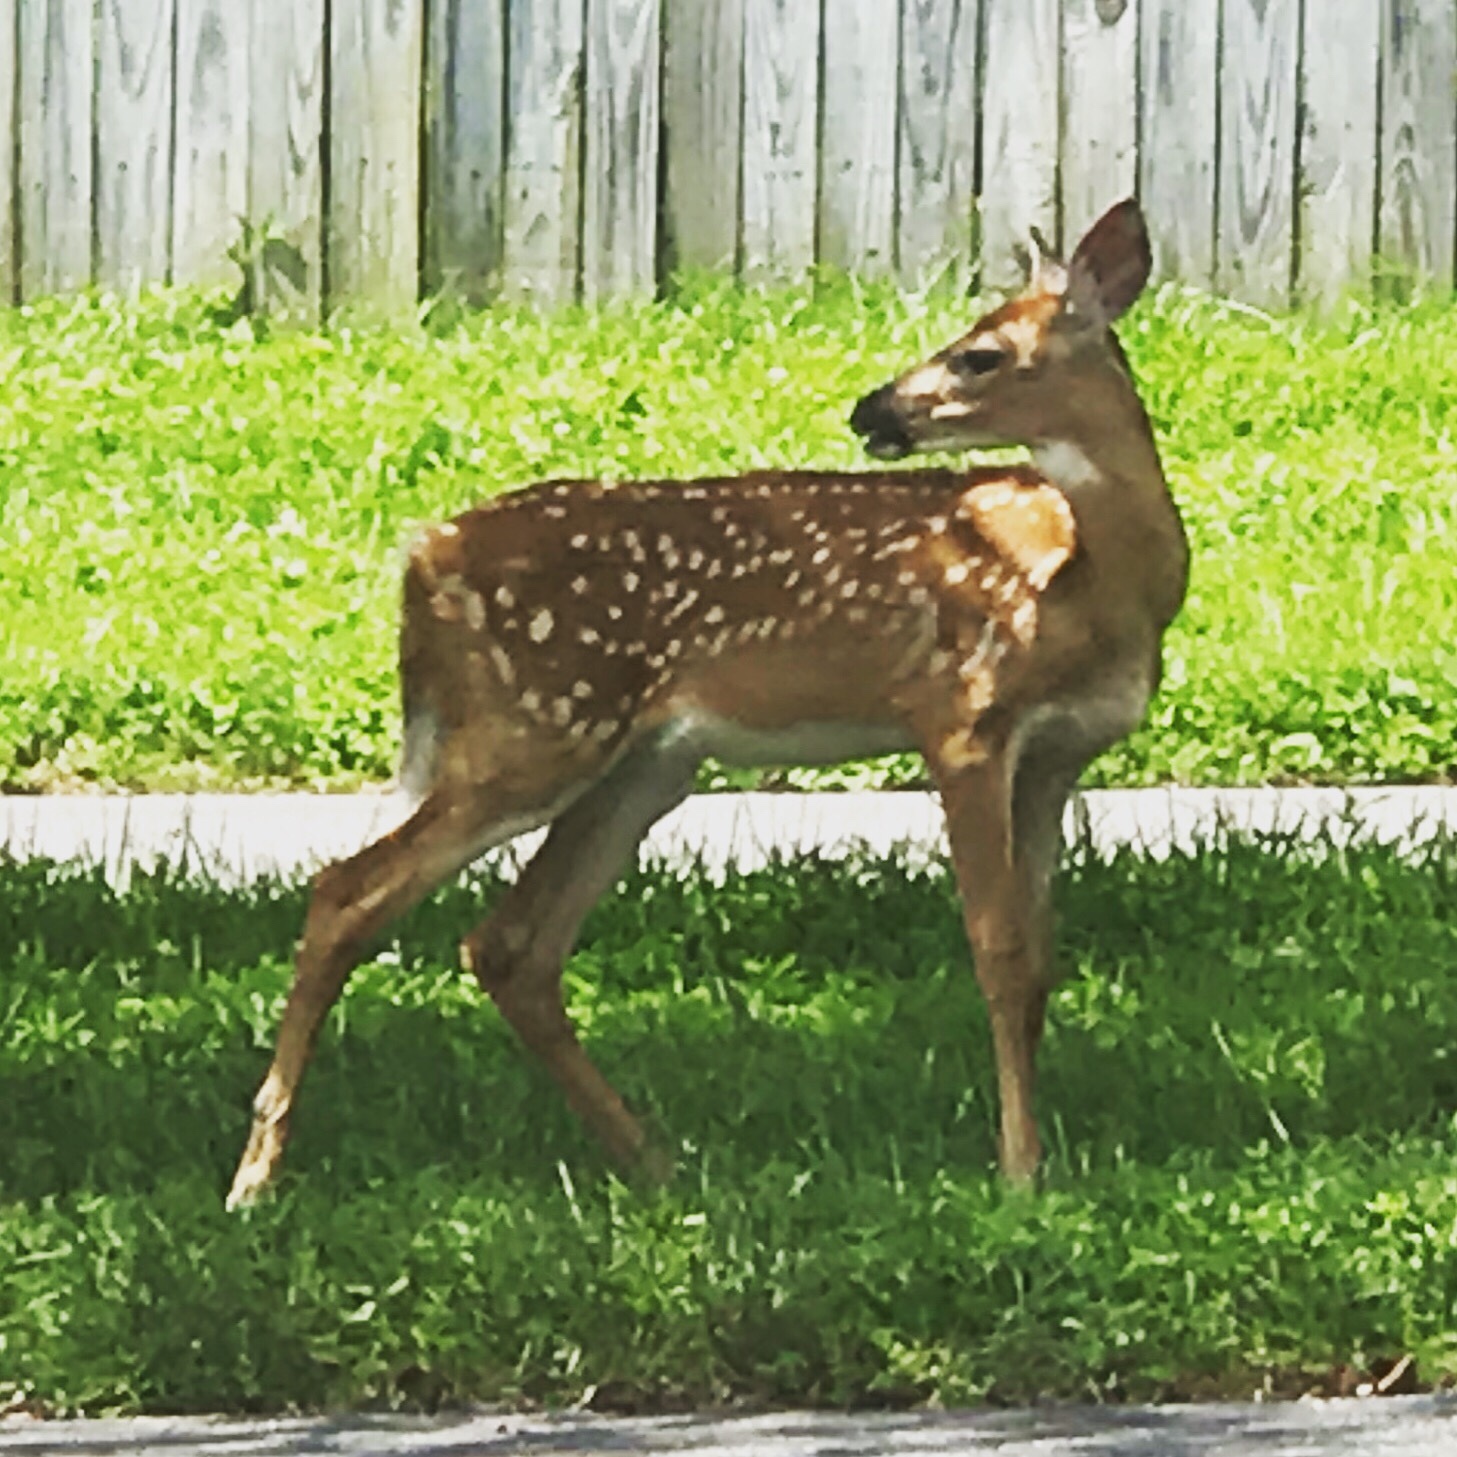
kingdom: Animalia
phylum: Chordata
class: Mammalia
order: Artiodactyla
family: Cervidae
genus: Odocoileus
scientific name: Odocoileus virginianus
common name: White-tailed deer
